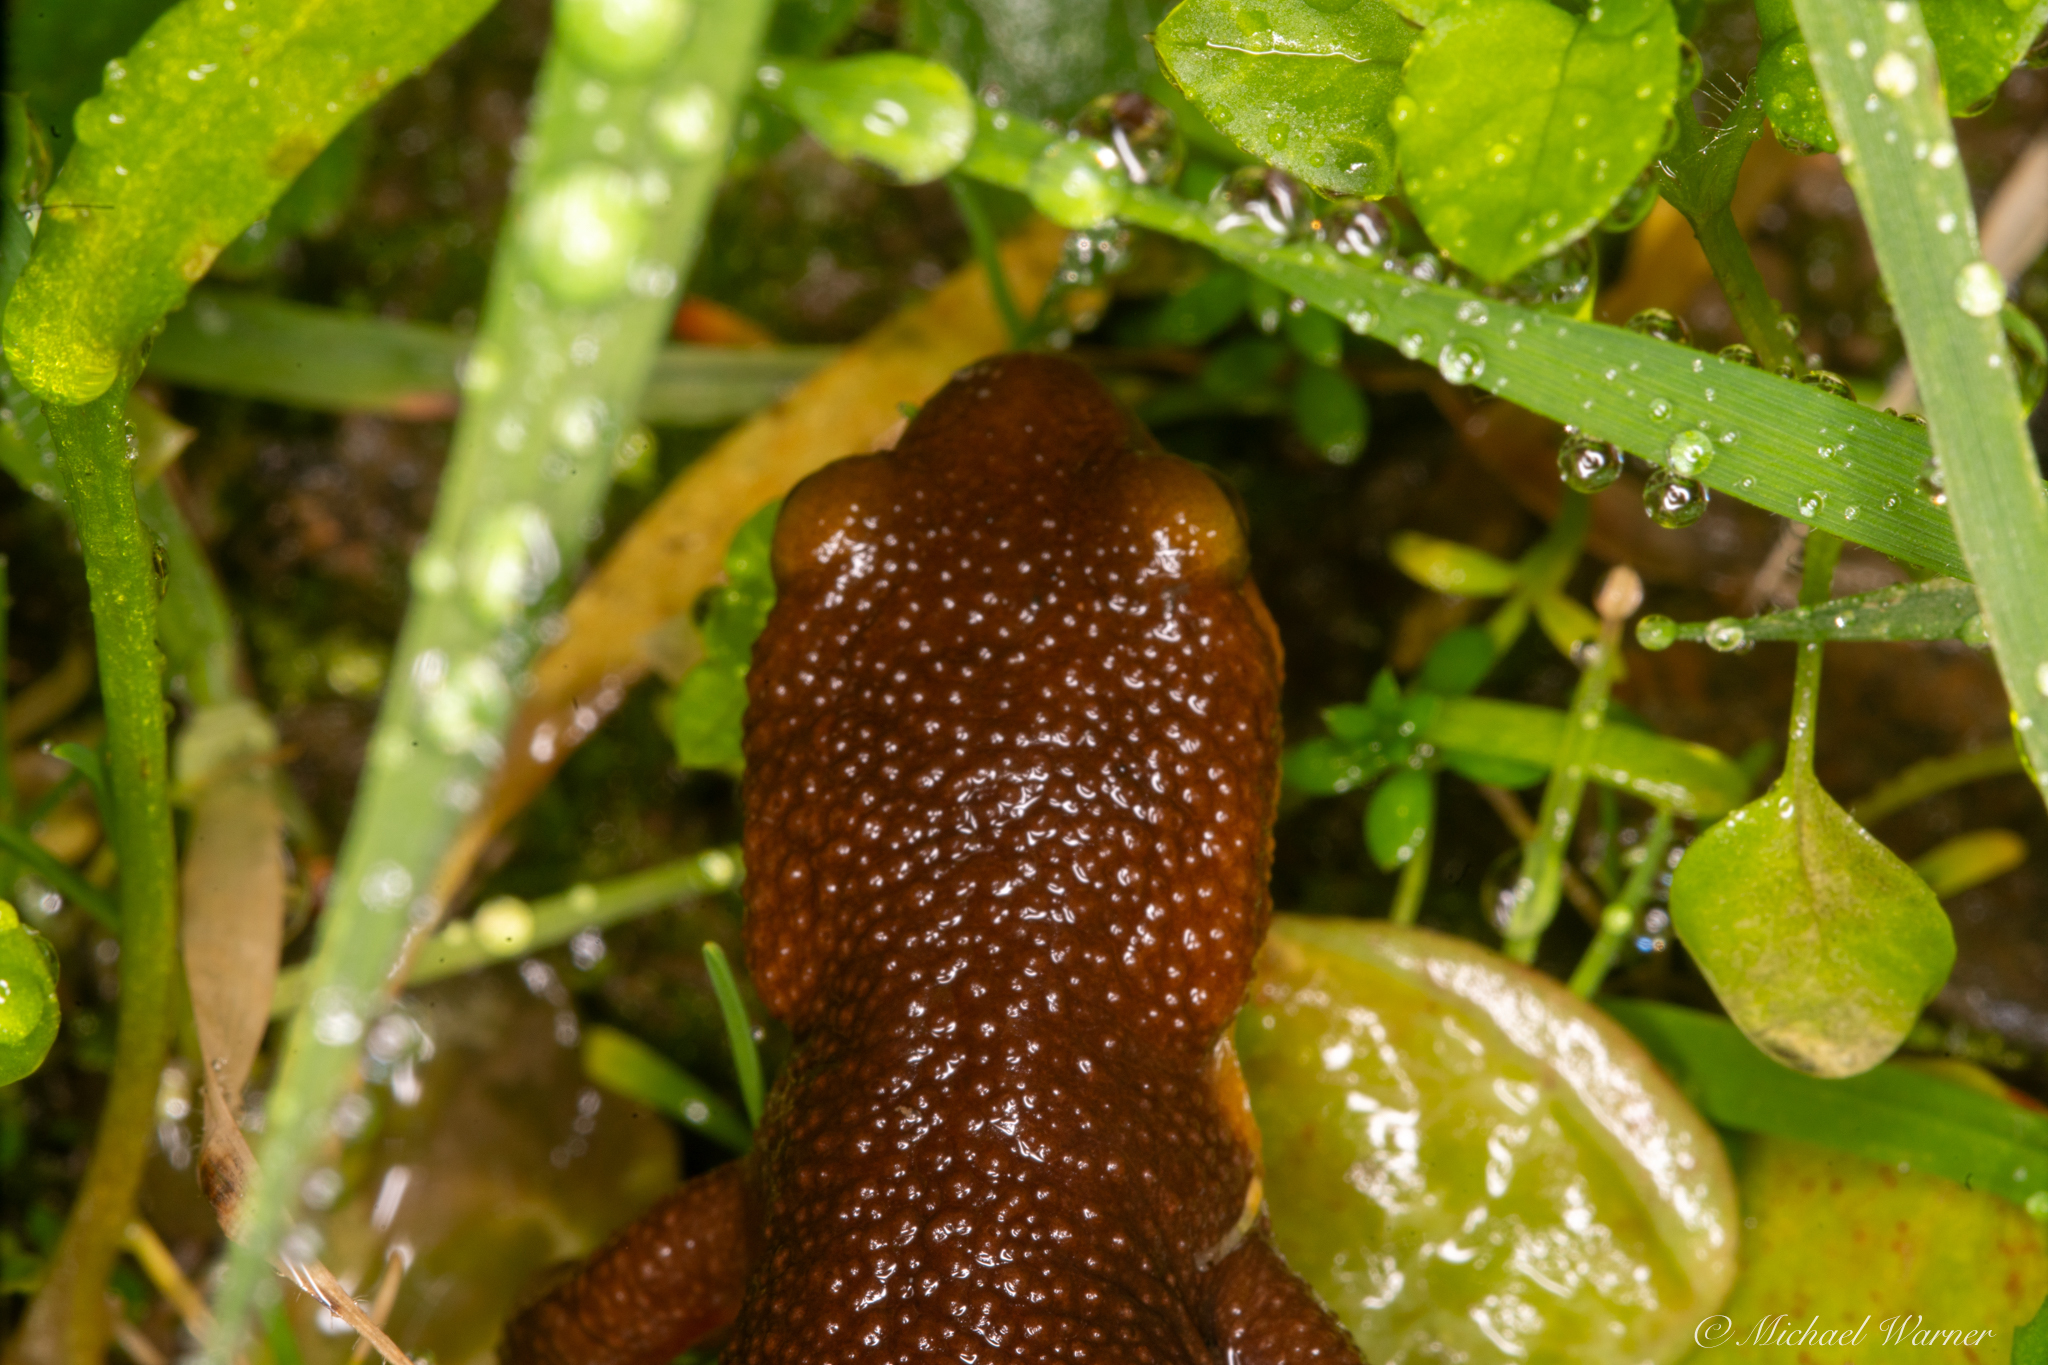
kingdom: Animalia
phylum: Chordata
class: Amphibia
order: Caudata
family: Salamandridae
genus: Taricha
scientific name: Taricha torosa
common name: California newt
